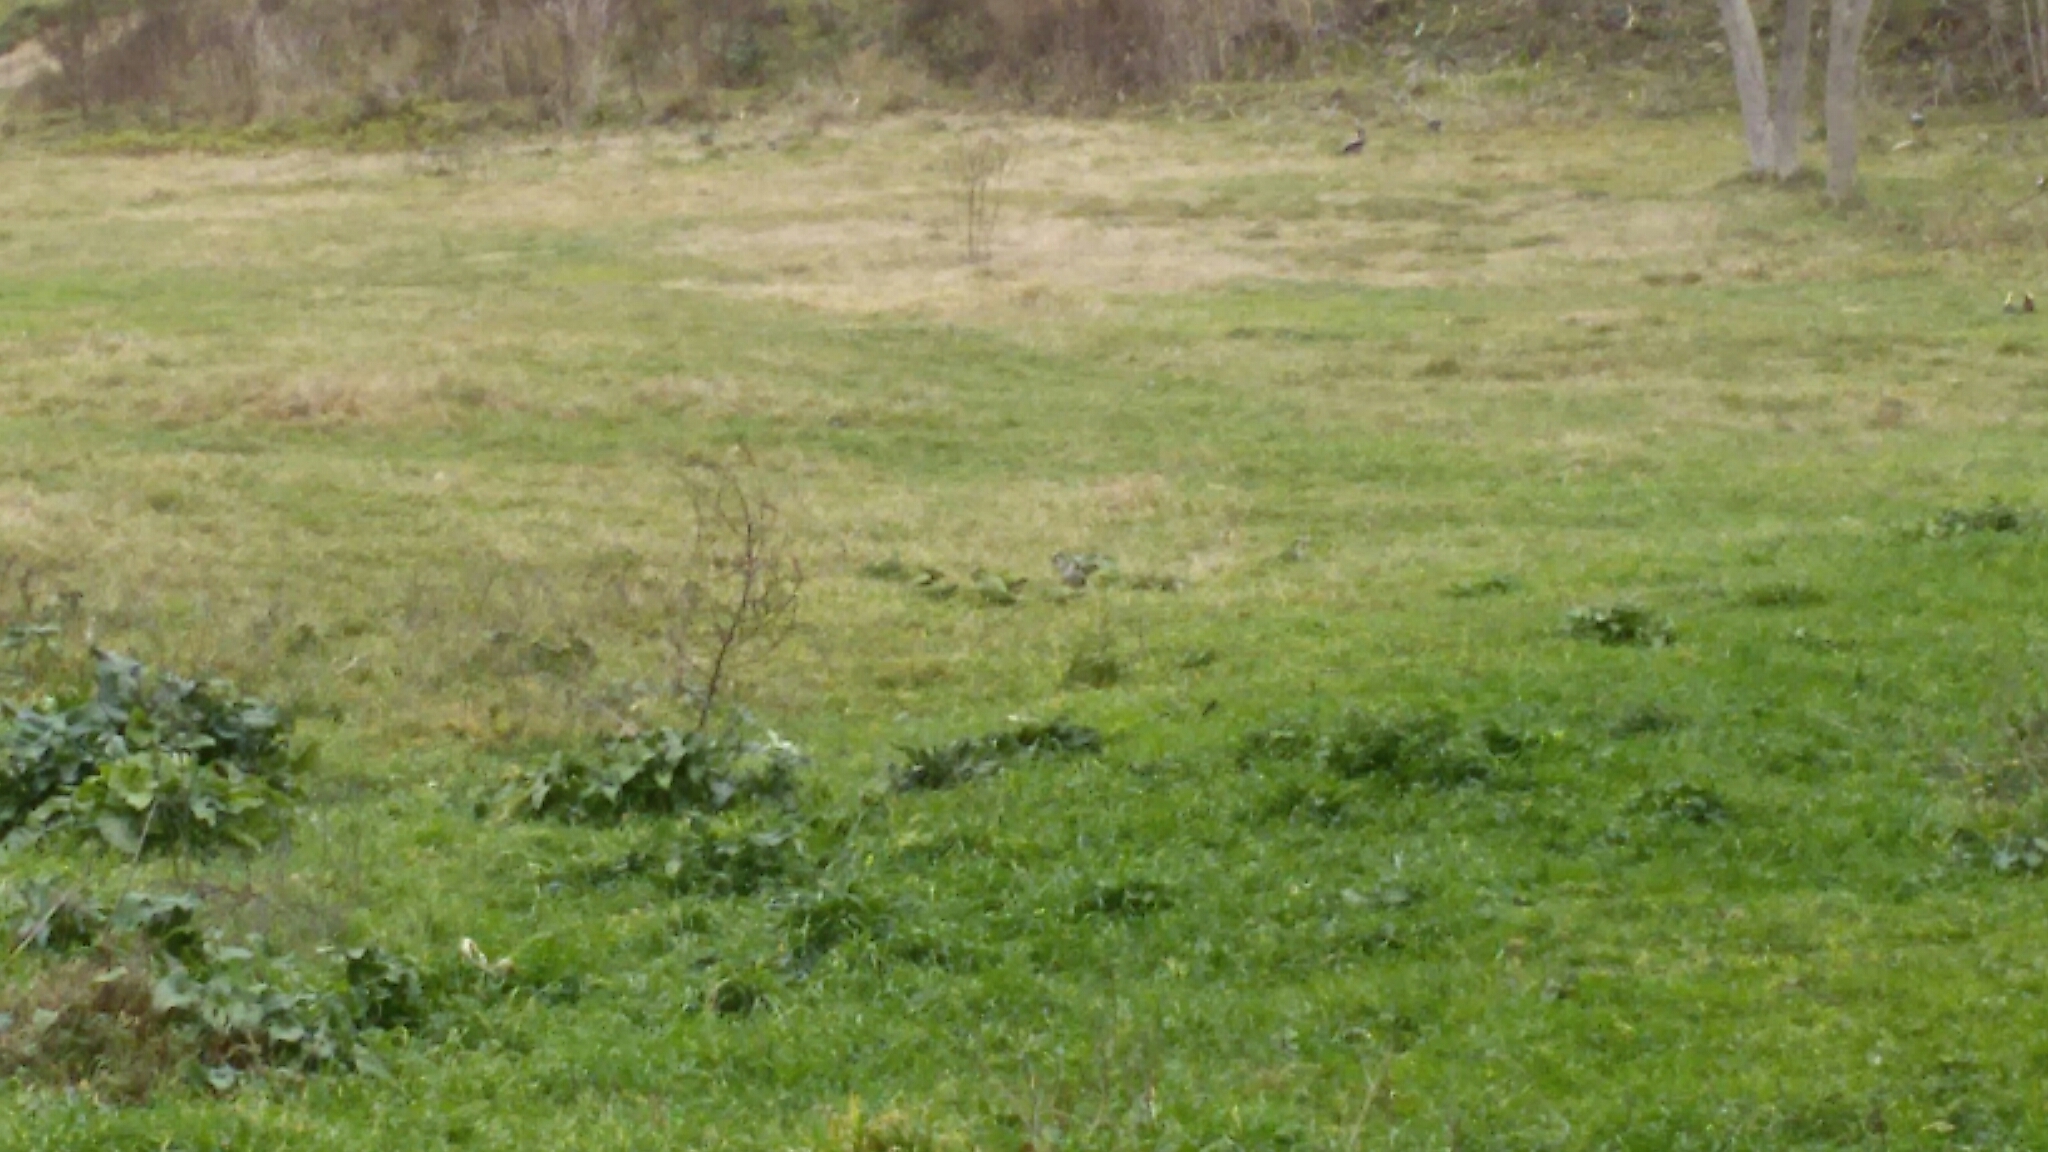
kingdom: Animalia
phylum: Chordata
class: Aves
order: Psittaciformes
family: Psittacidae
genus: Myiopsitta
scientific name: Myiopsitta monachus
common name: Monk parakeet
